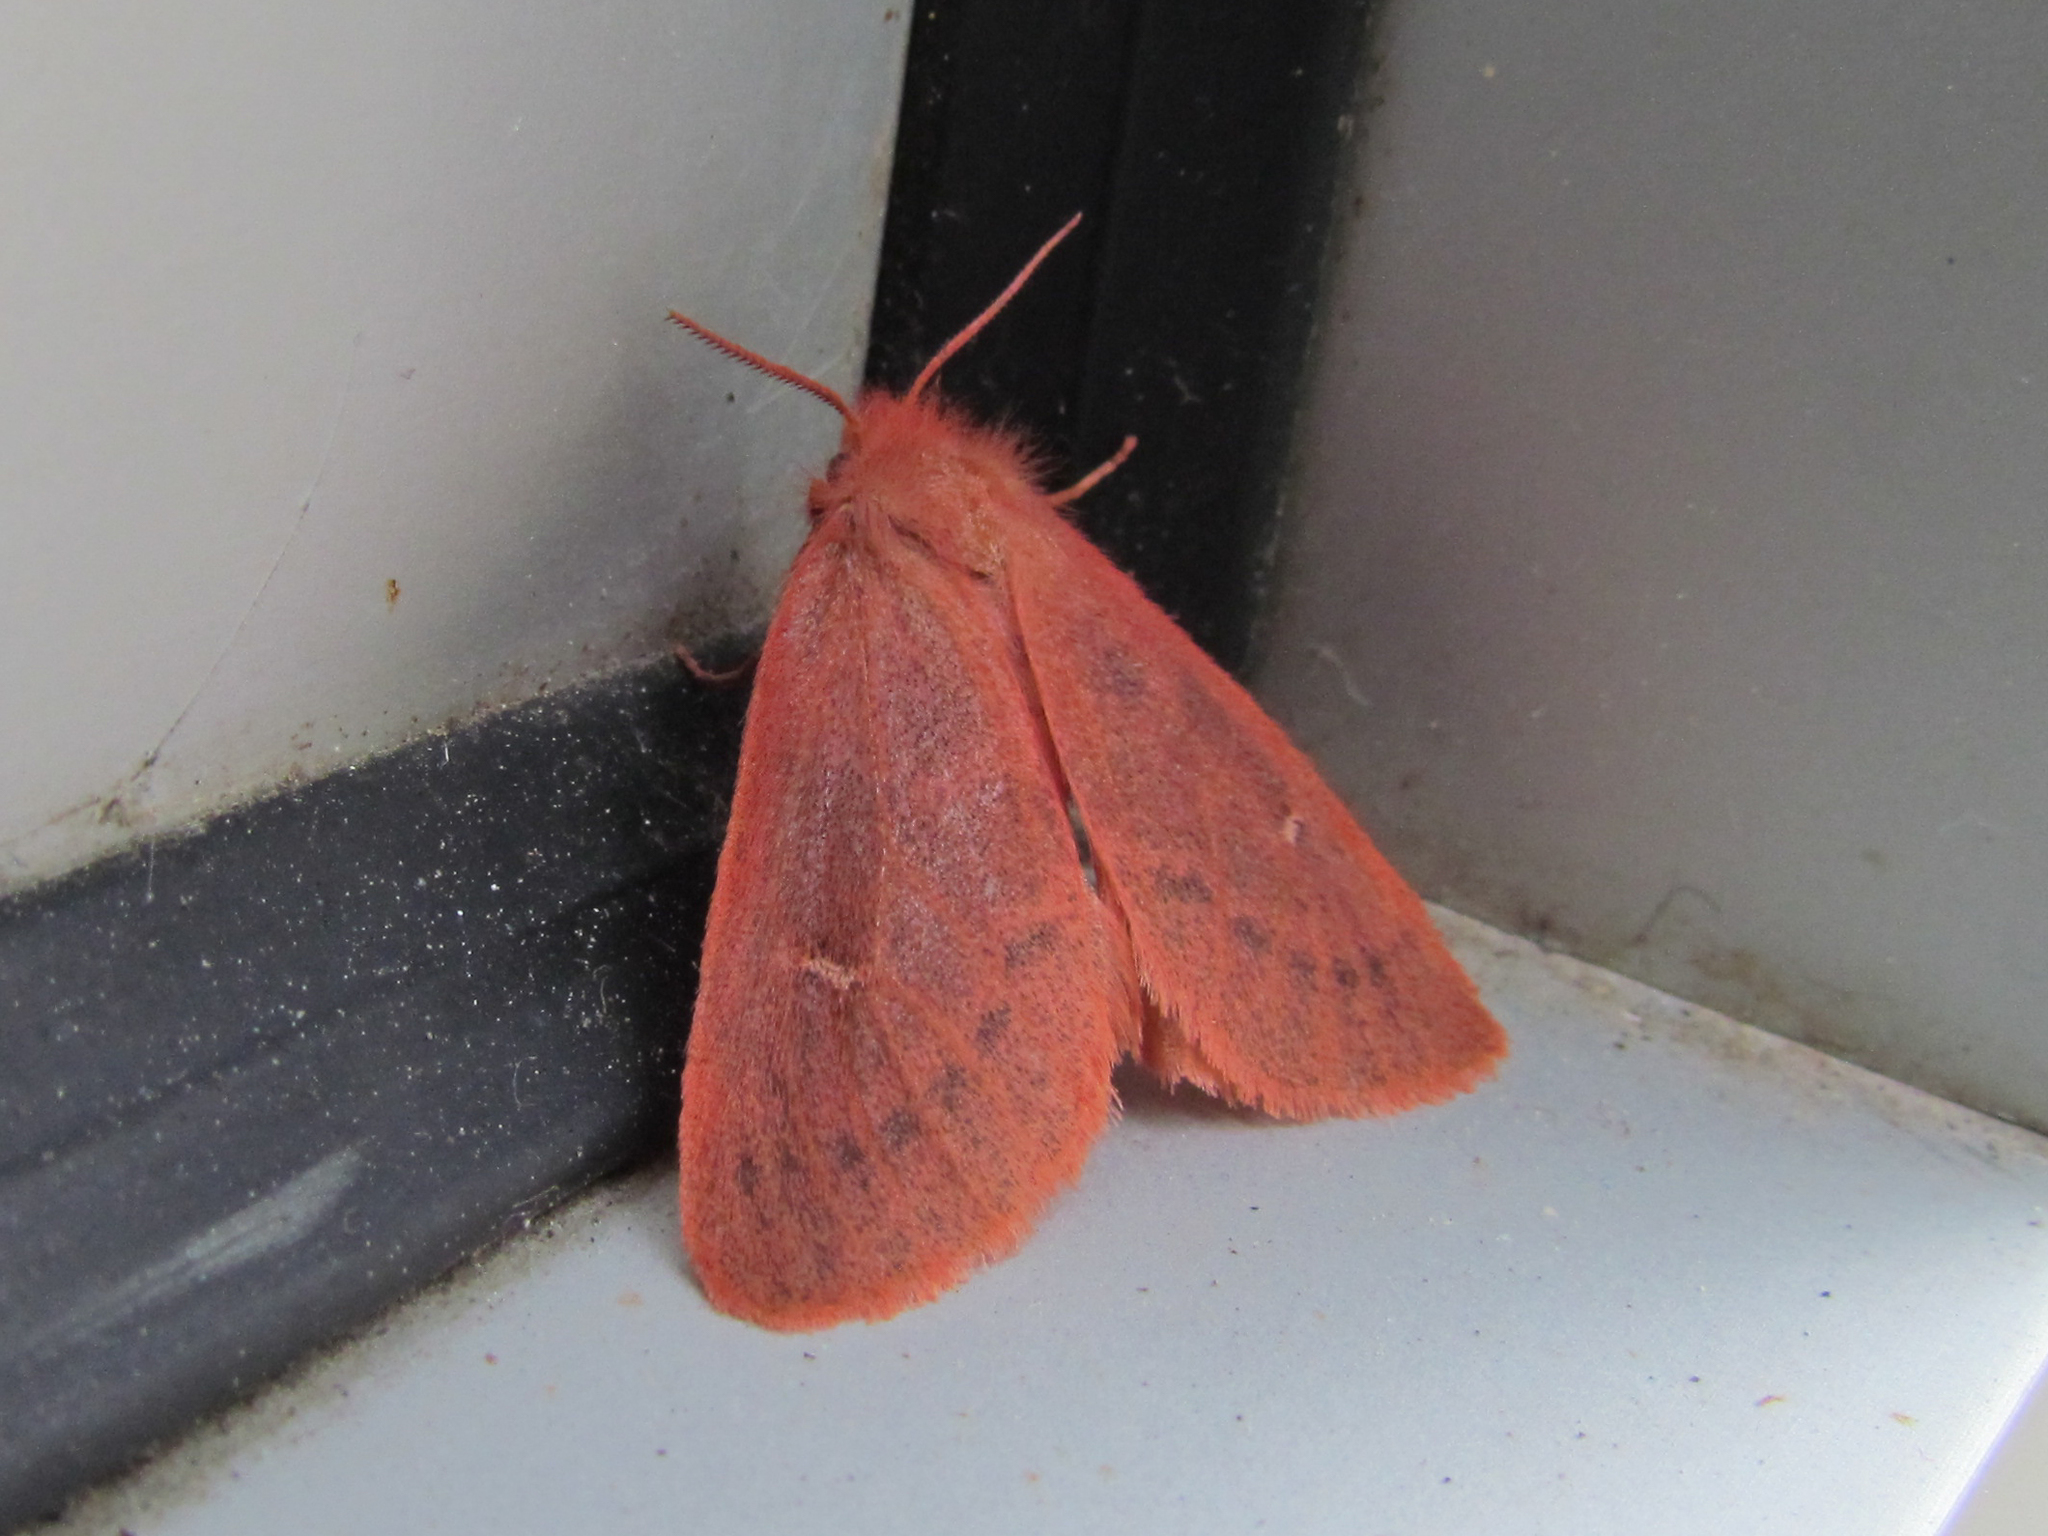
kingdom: Animalia
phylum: Arthropoda
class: Insecta
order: Lepidoptera
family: Erebidae
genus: Ocneria
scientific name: Ocneria rubea
